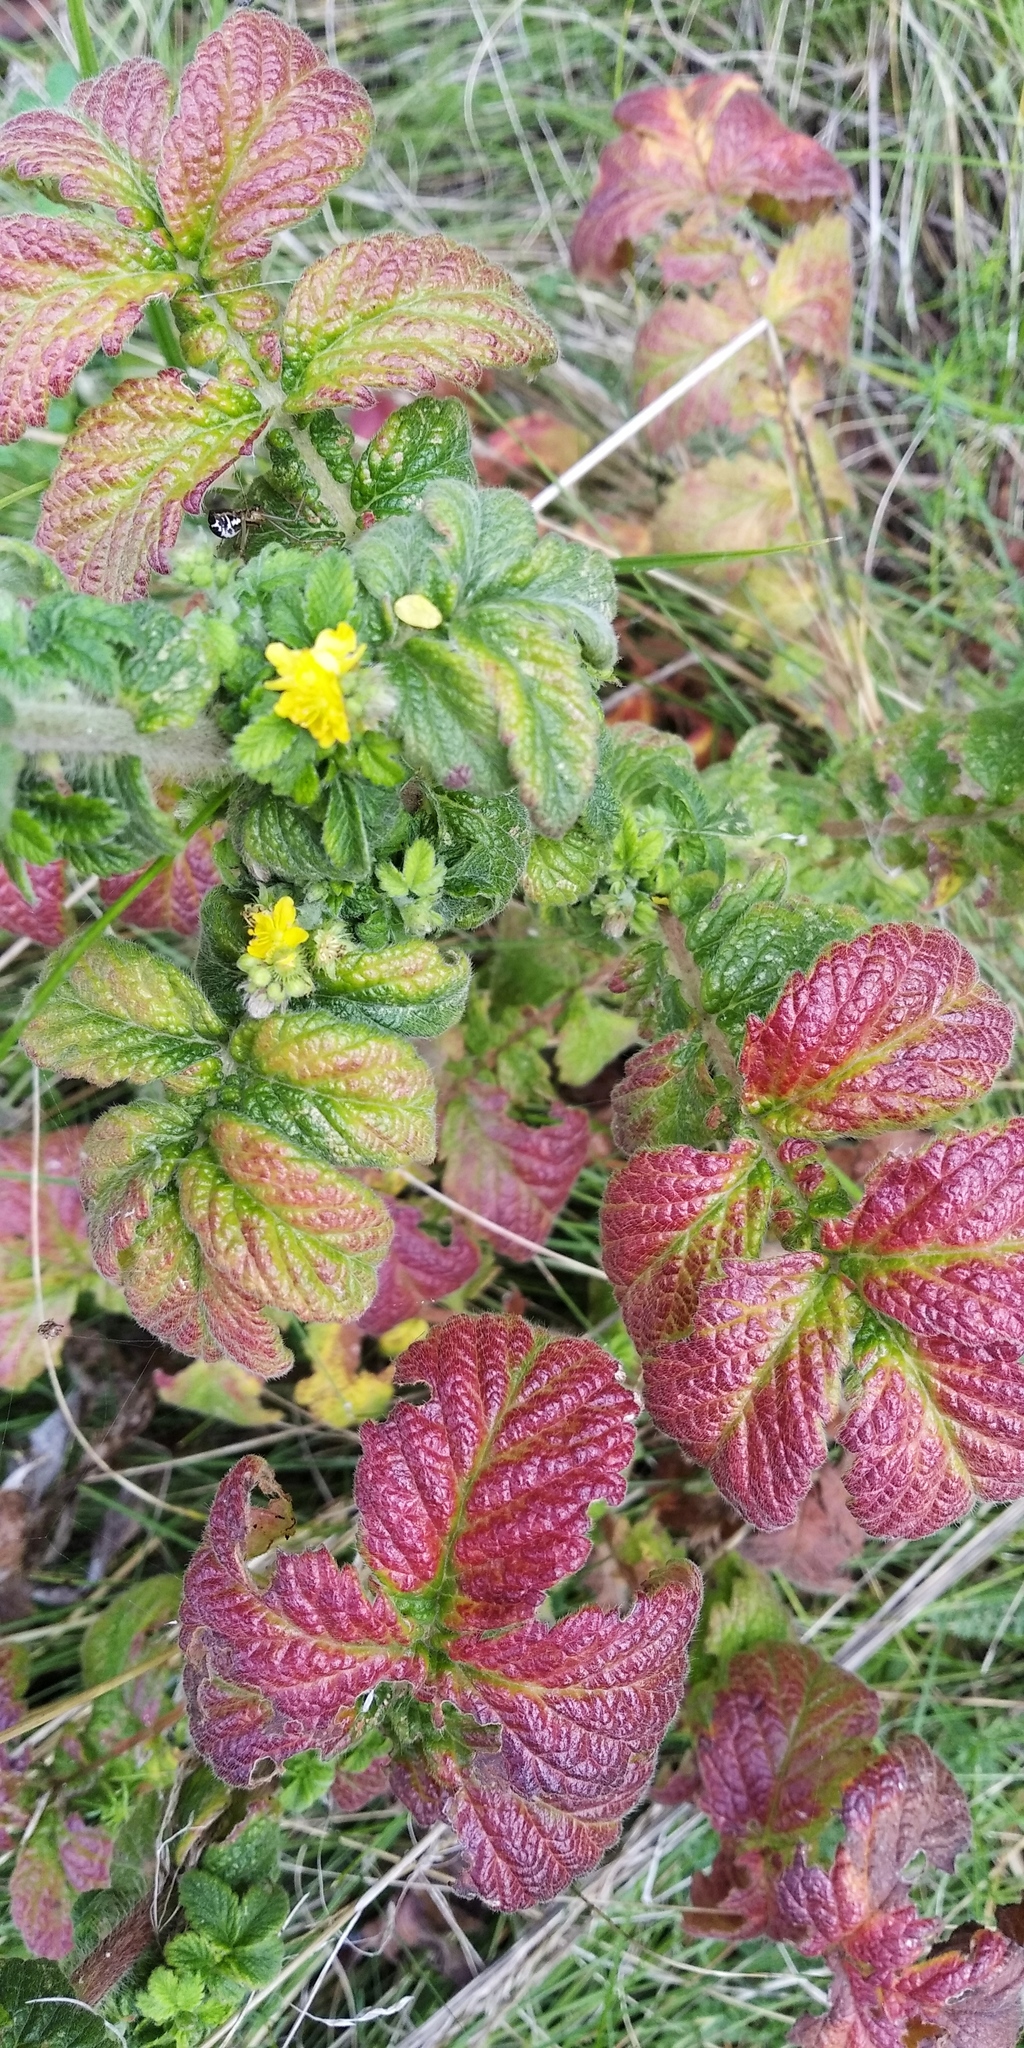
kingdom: Plantae
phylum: Tracheophyta
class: Magnoliopsida
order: Rosales
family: Rosaceae
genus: Geum
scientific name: Geum urbanum
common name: Wood avens
